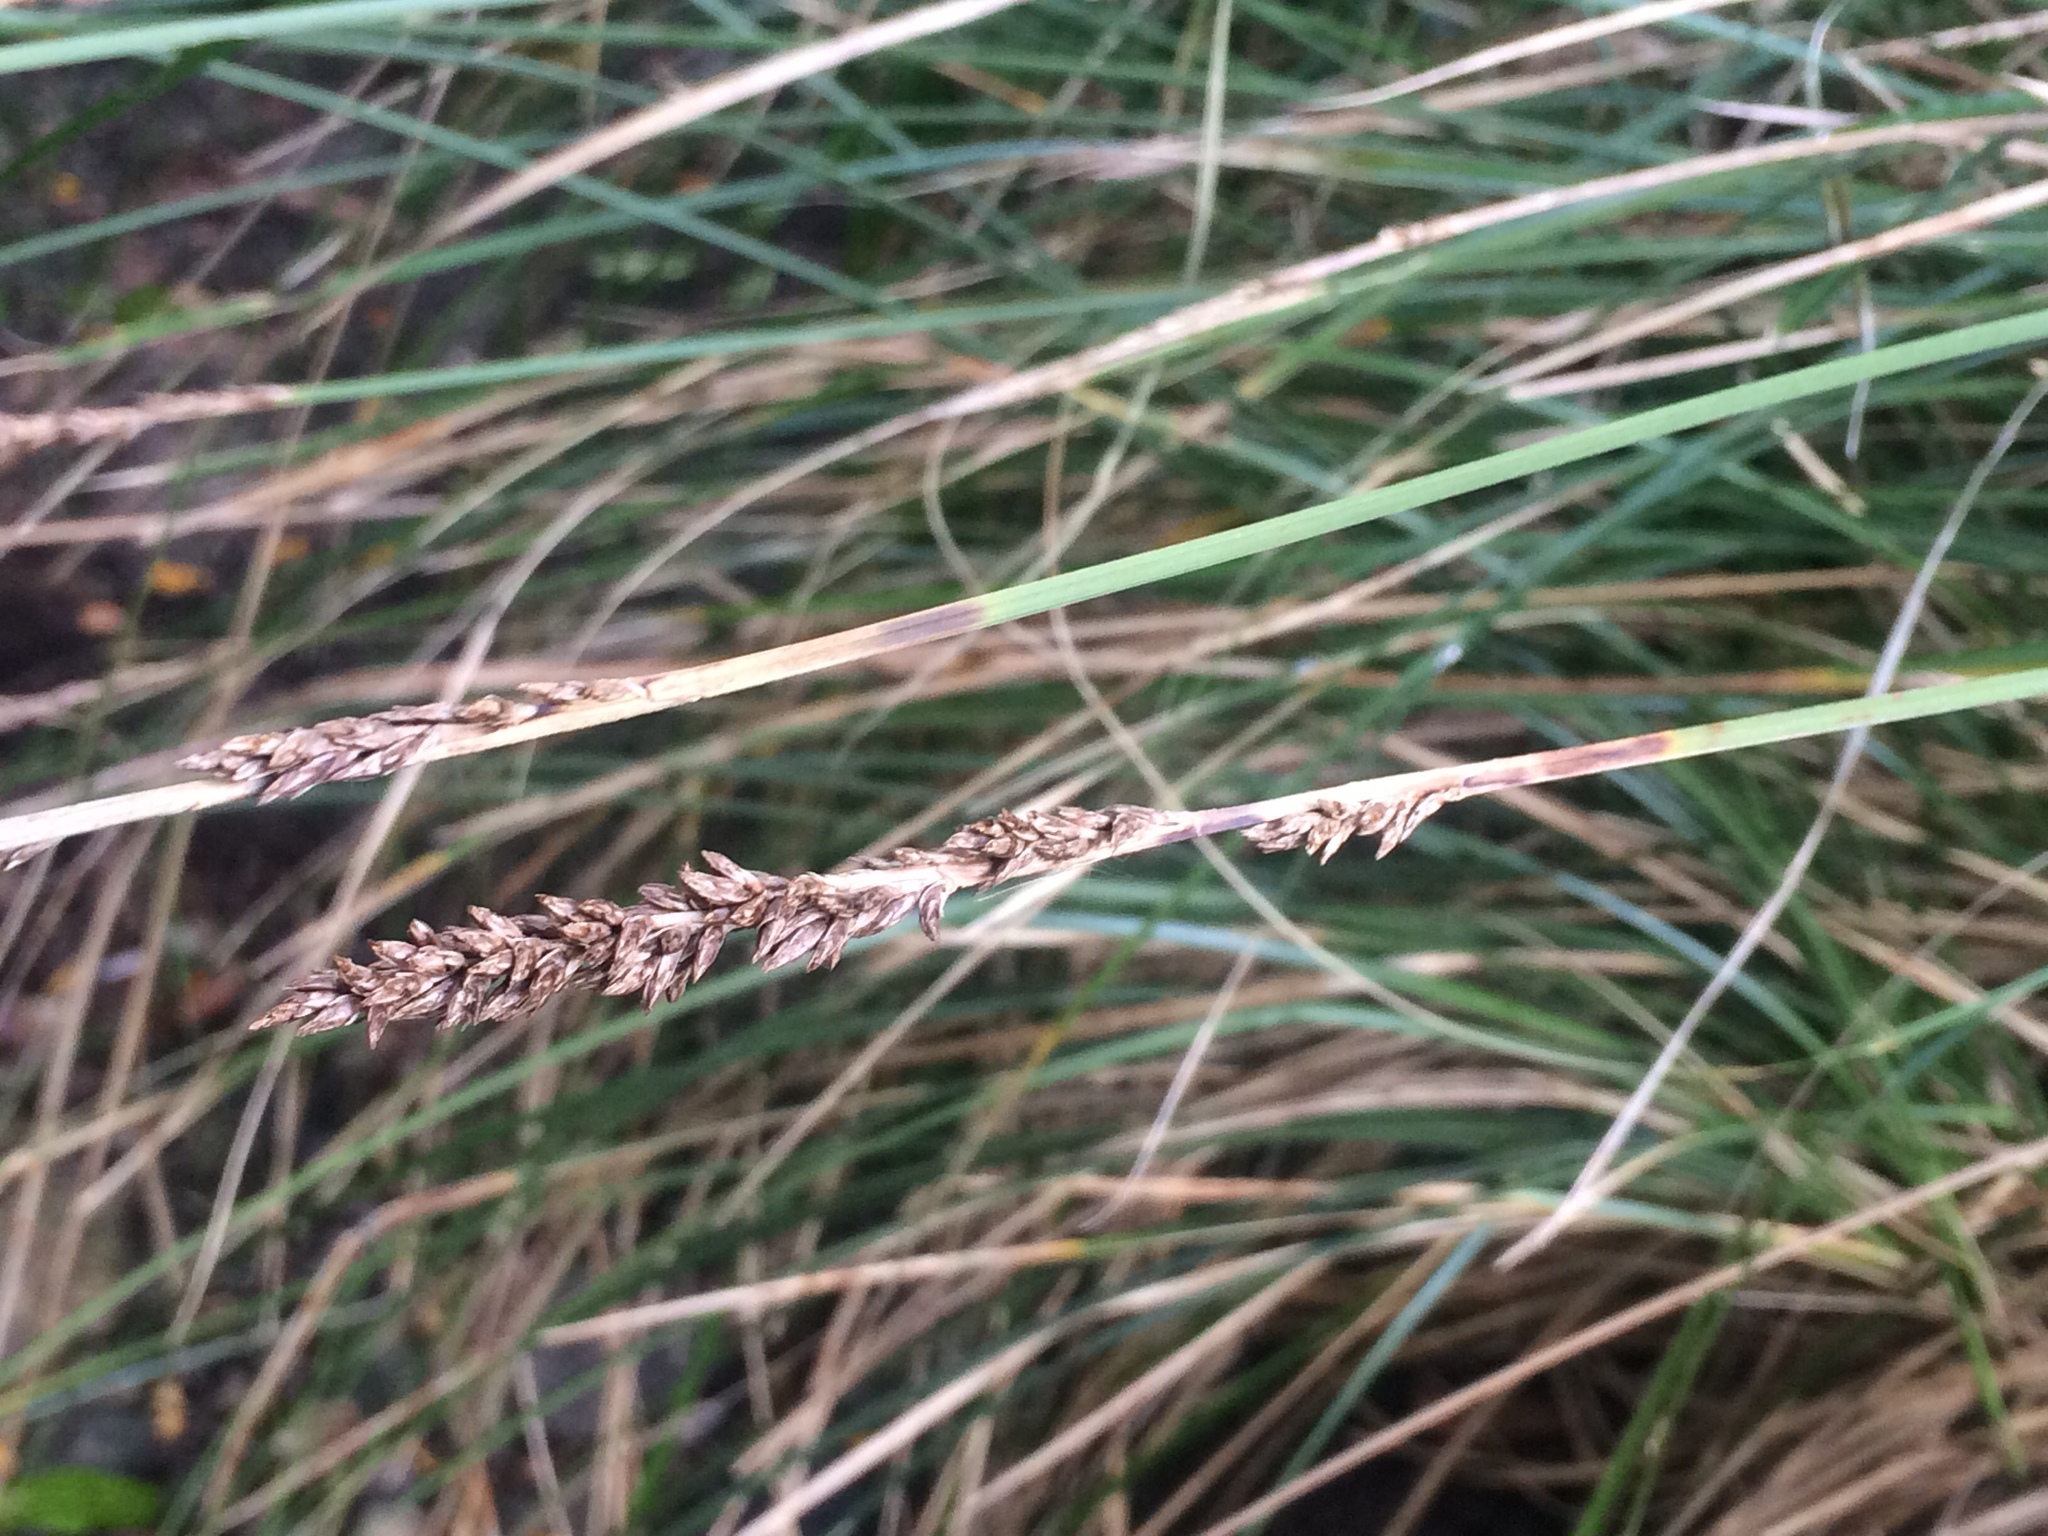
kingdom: Plantae
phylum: Tracheophyta
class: Liliopsida
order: Poales
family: Cyperaceae
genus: Carex
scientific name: Carex virgata
